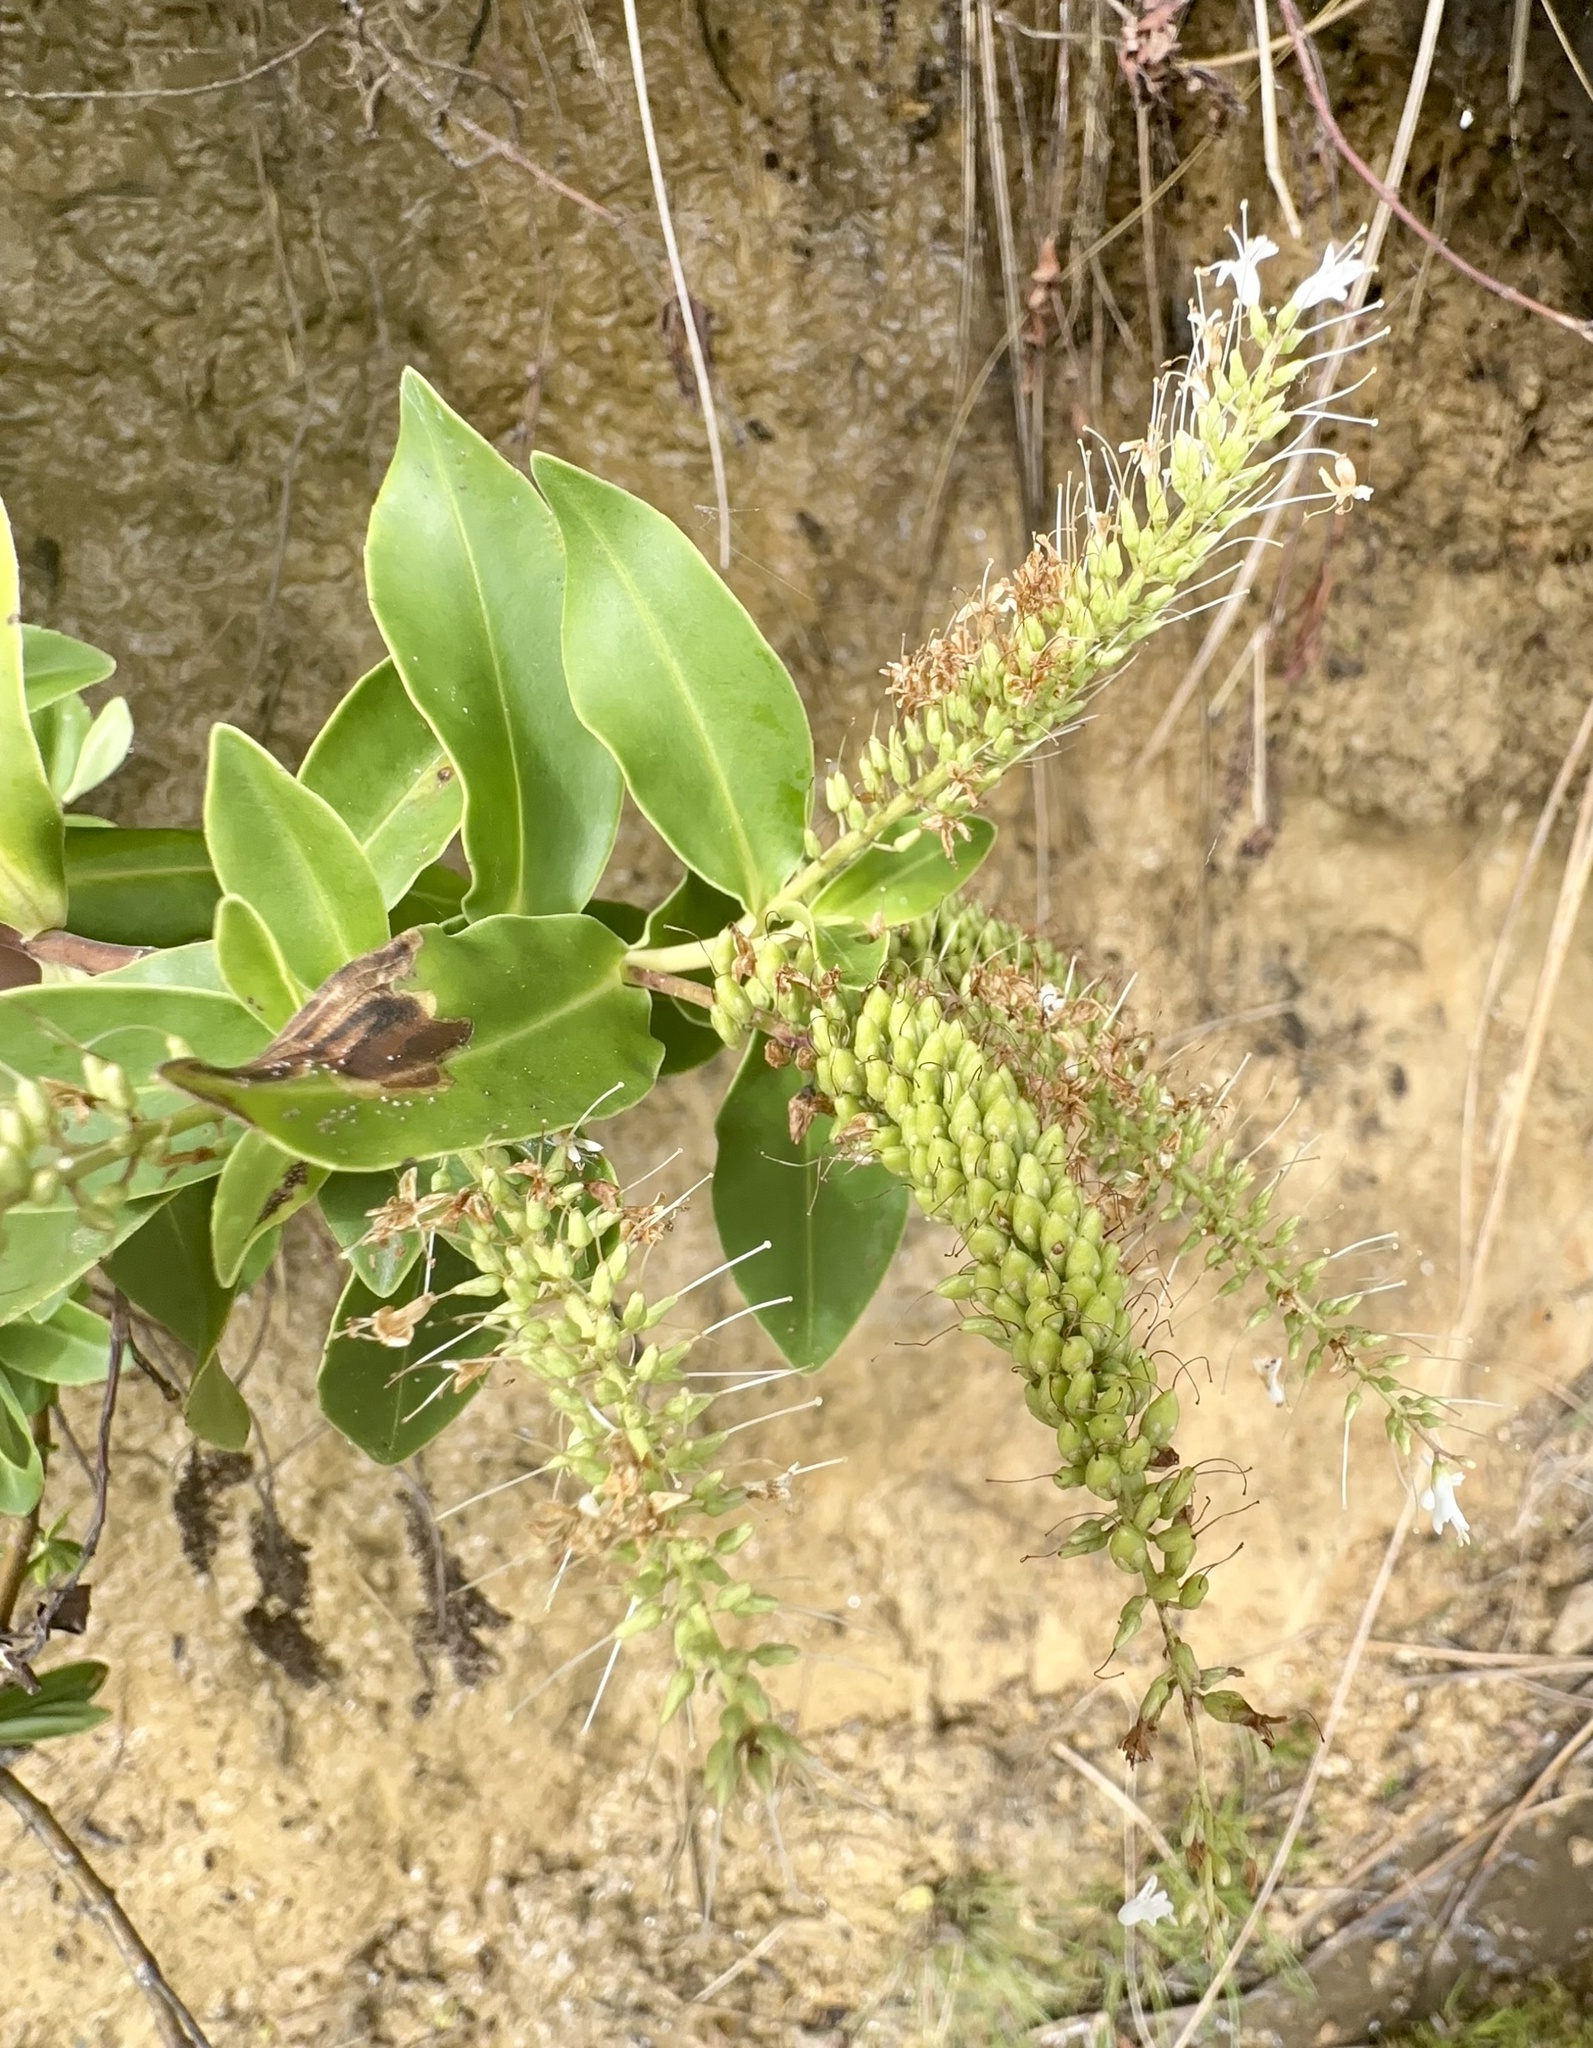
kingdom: Plantae
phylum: Tracheophyta
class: Magnoliopsida
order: Lamiales
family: Plantaginaceae
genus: Veronica
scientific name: Veronica stricta
